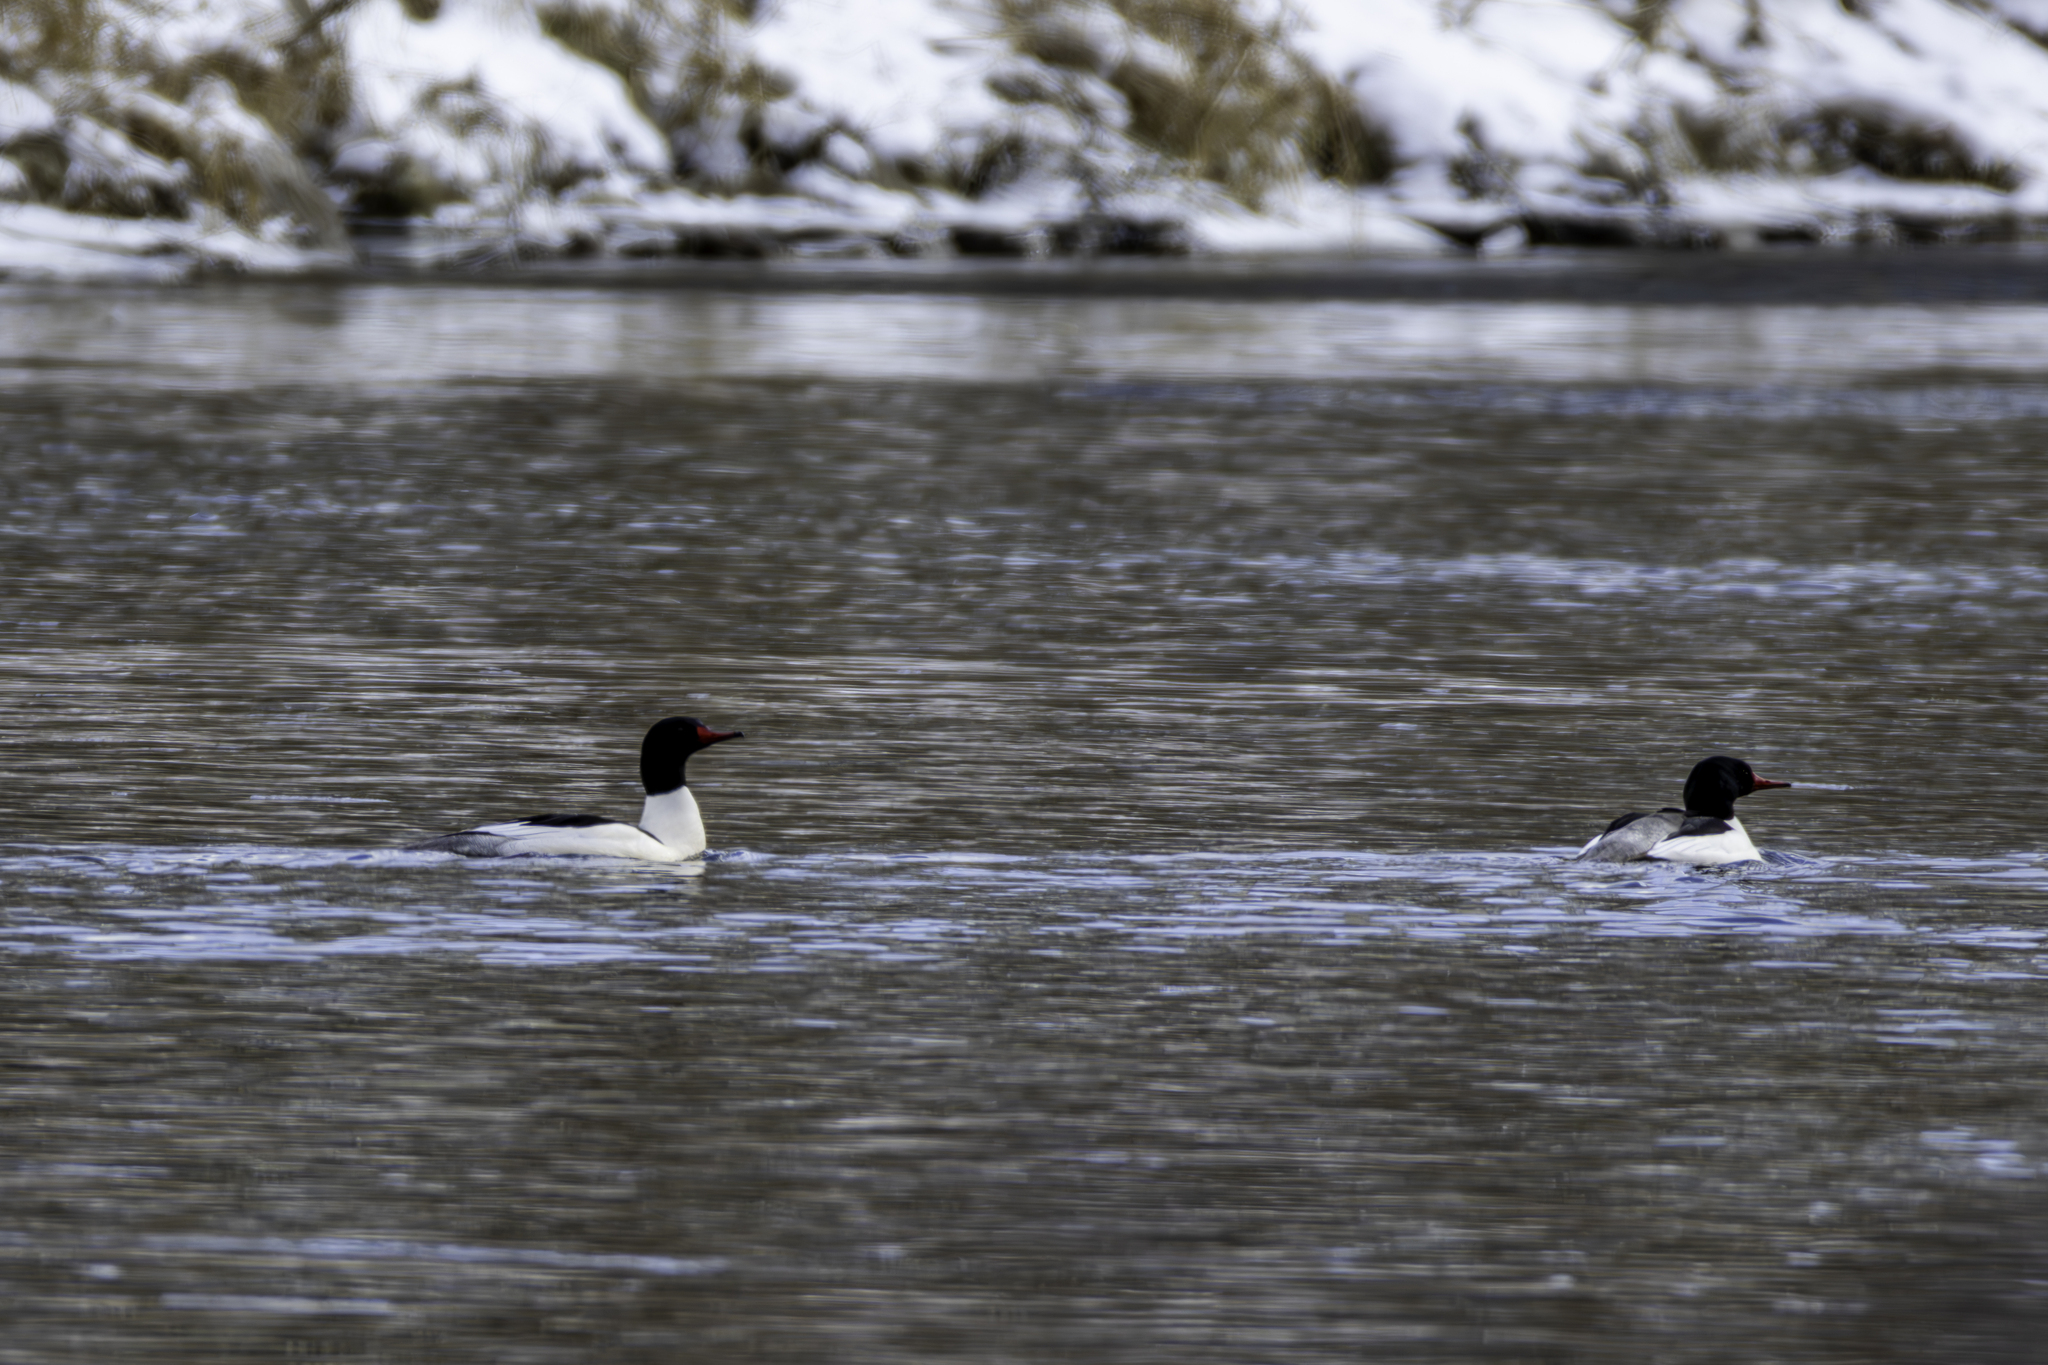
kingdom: Animalia
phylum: Chordata
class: Aves
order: Anseriformes
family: Anatidae
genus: Mergus
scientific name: Mergus merganser
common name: Common merganser
